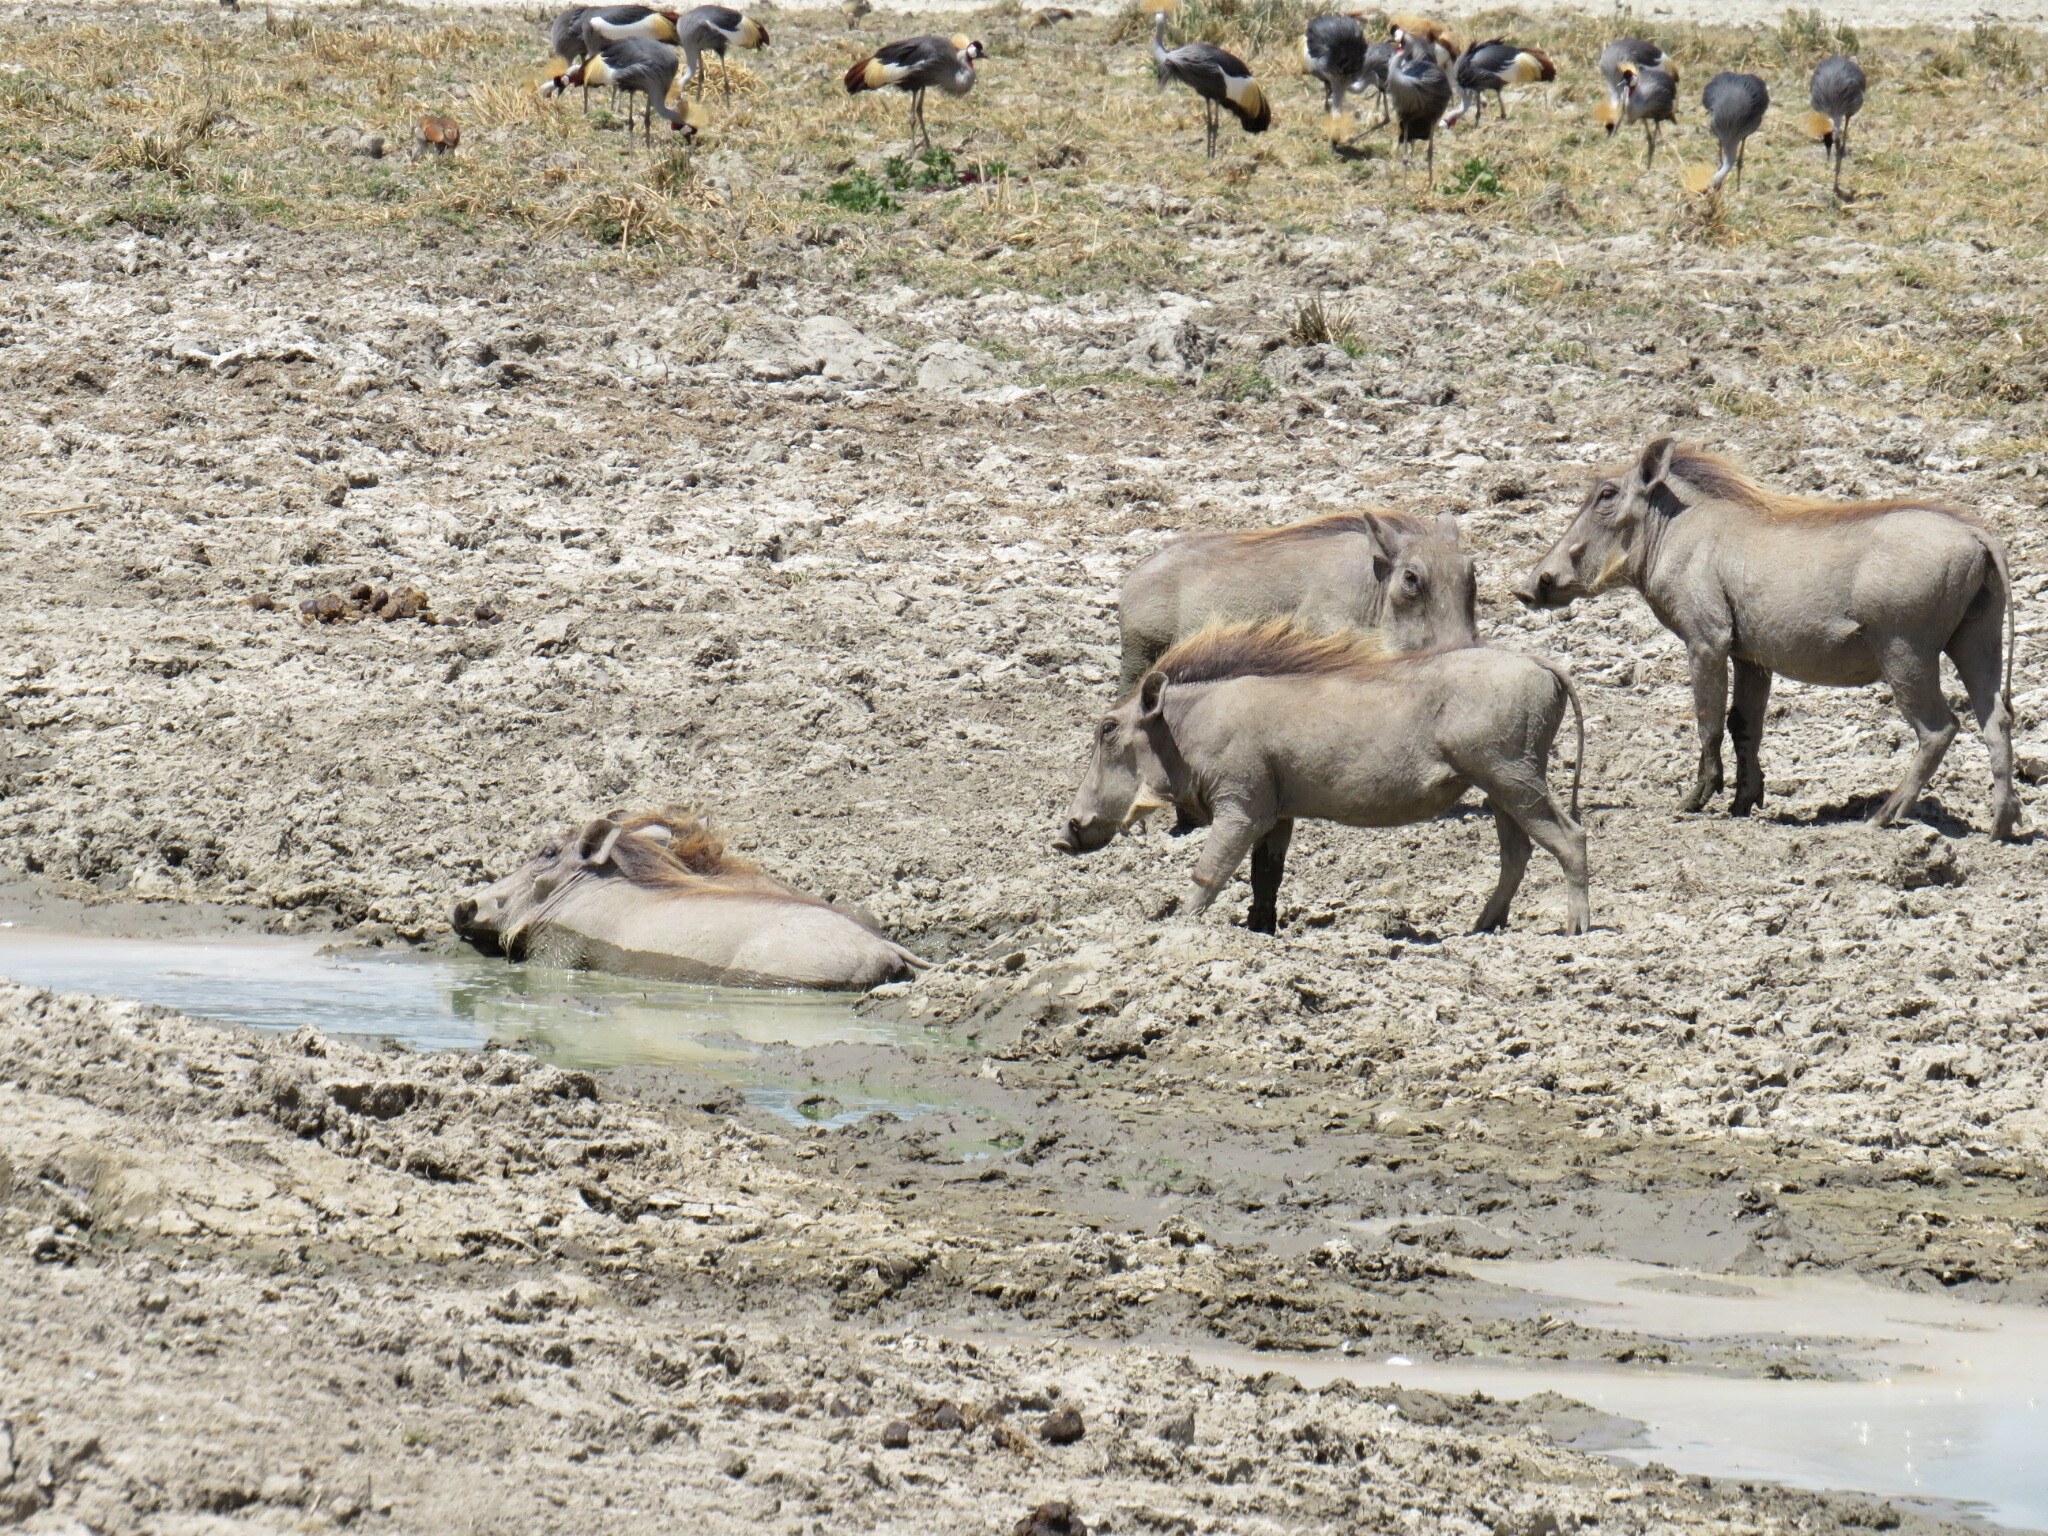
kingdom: Animalia
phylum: Chordata
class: Mammalia
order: Artiodactyla
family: Suidae
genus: Phacochoerus
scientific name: Phacochoerus africanus
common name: Common warthog
